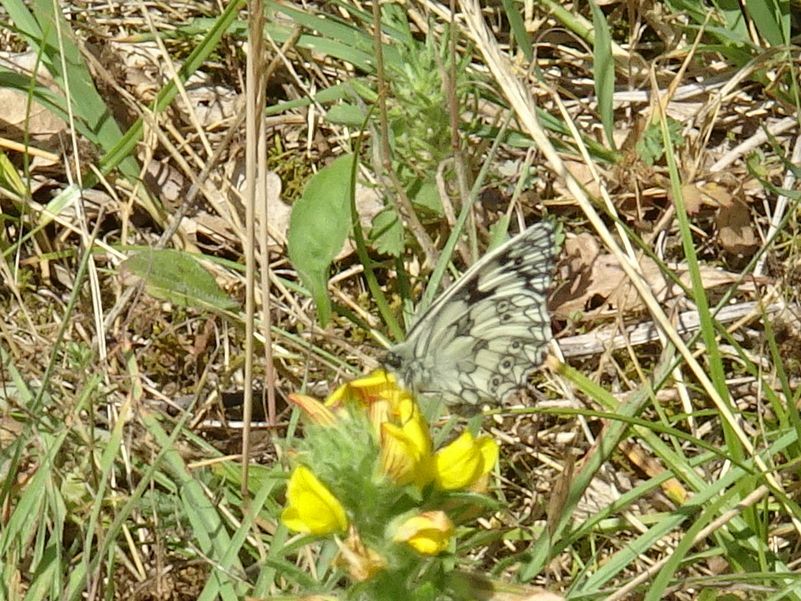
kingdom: Animalia
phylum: Arthropoda
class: Insecta
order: Lepidoptera
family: Nymphalidae
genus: Melanargia
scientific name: Melanargia galathea
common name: Marbled white
